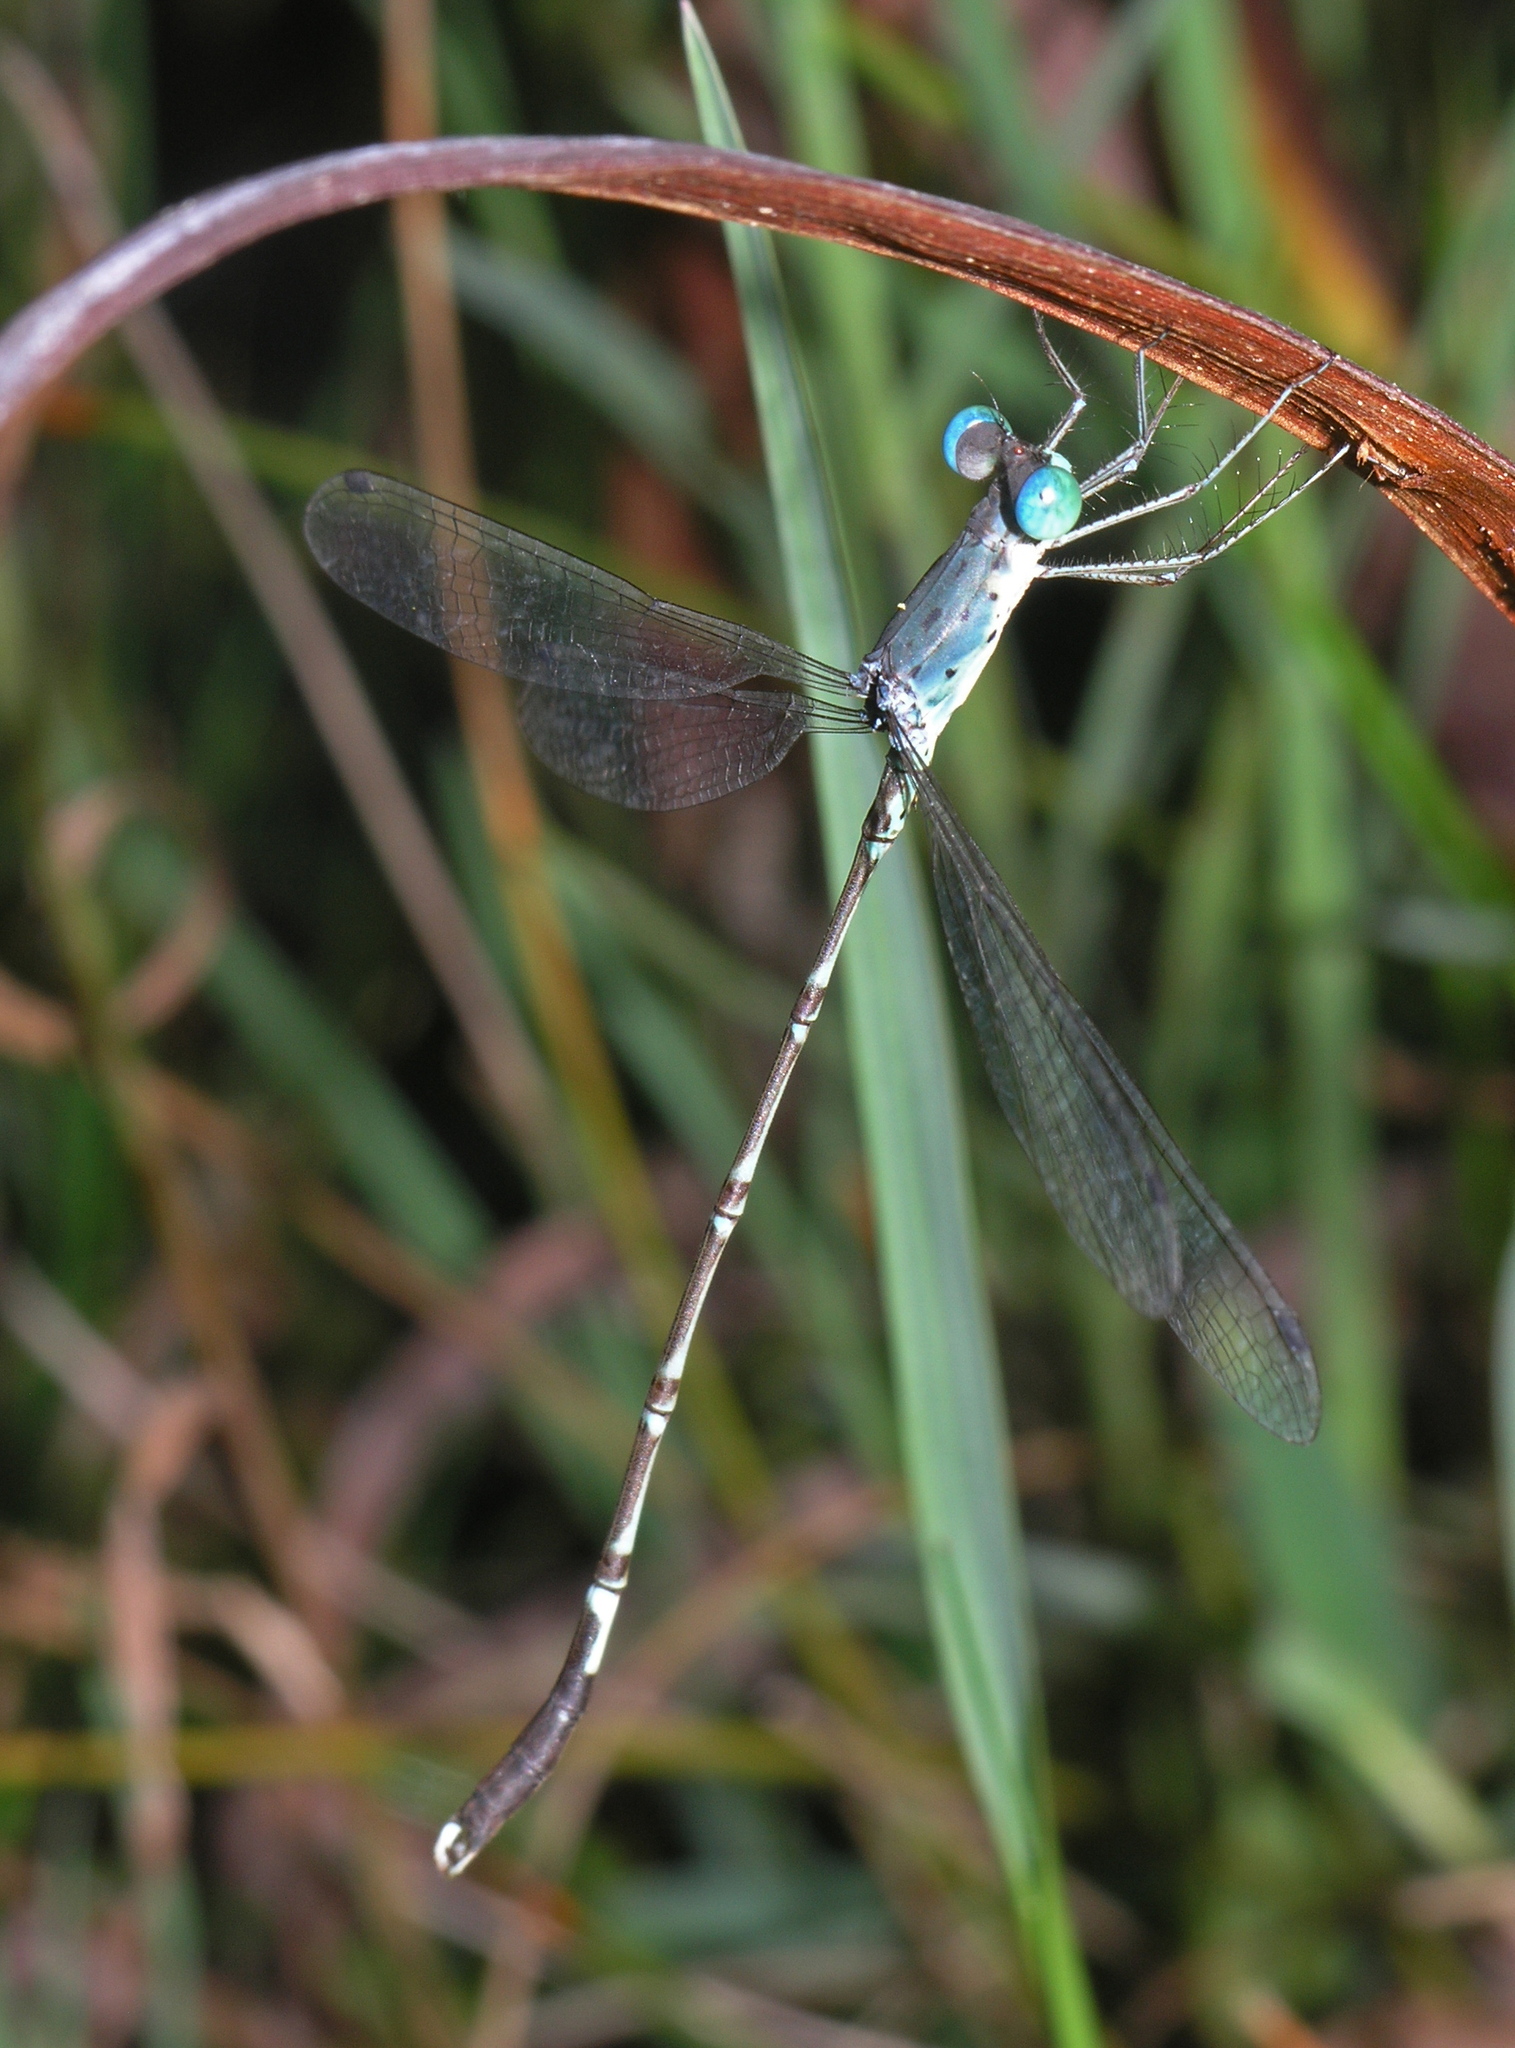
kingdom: Animalia
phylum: Arthropoda
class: Insecta
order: Odonata
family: Lestidae
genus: Platylestes
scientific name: Platylestes platystylus
